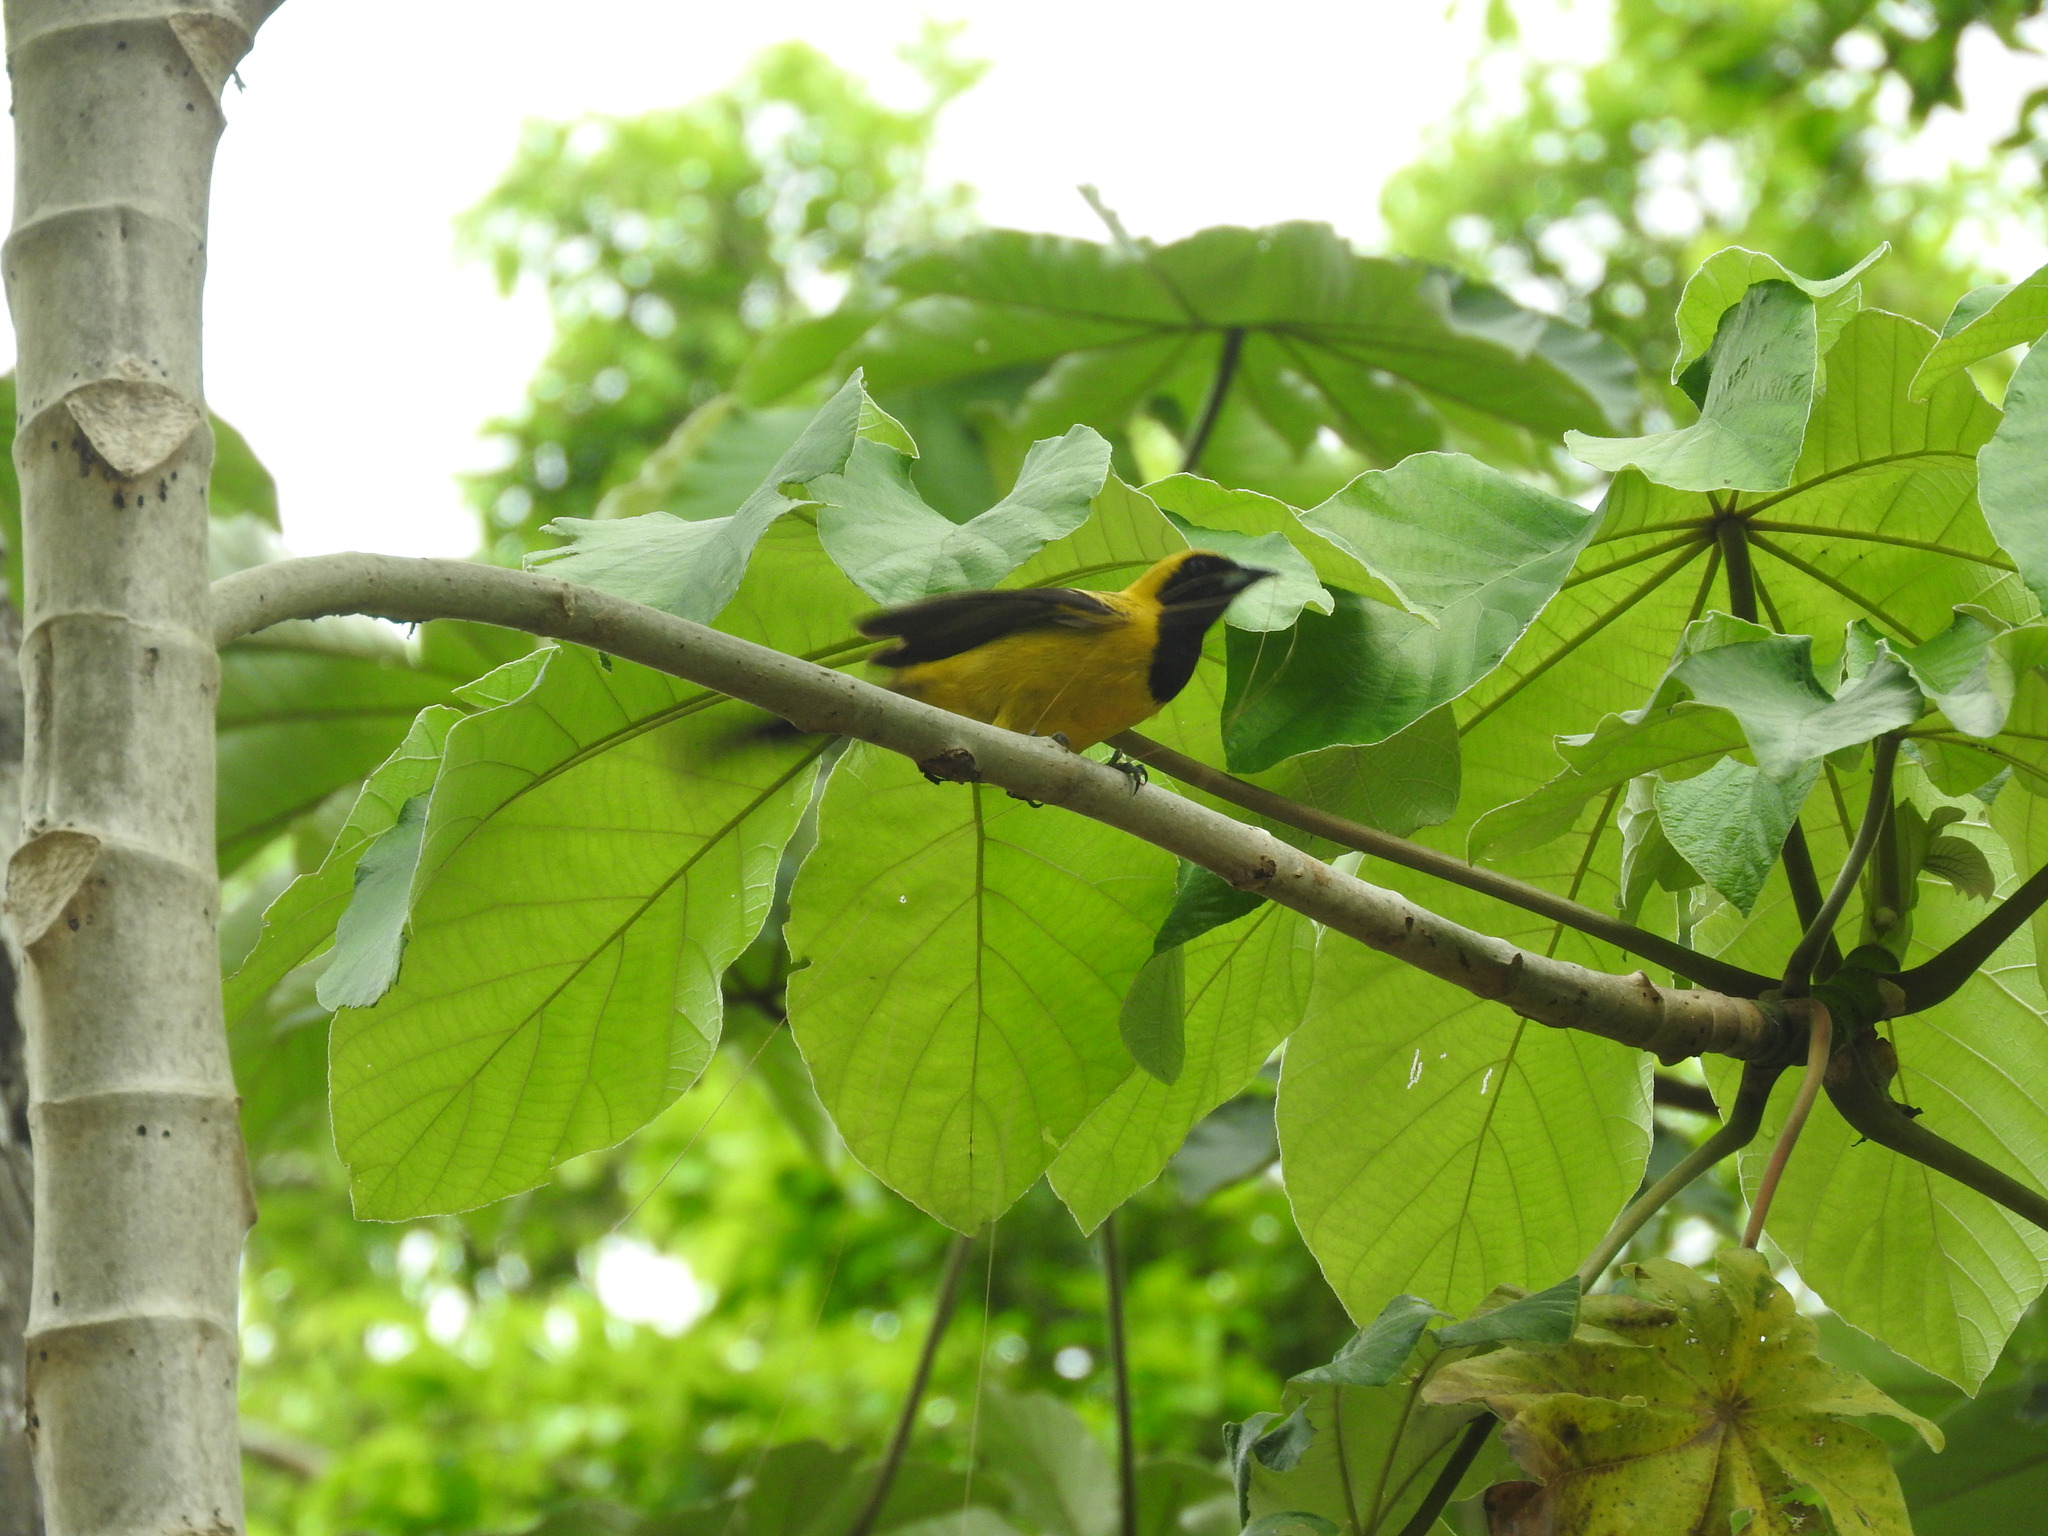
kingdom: Animalia
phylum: Chordata
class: Aves
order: Passeriformes
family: Icteridae
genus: Icterus
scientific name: Icterus chrysater
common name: Yellow-backed oriole
